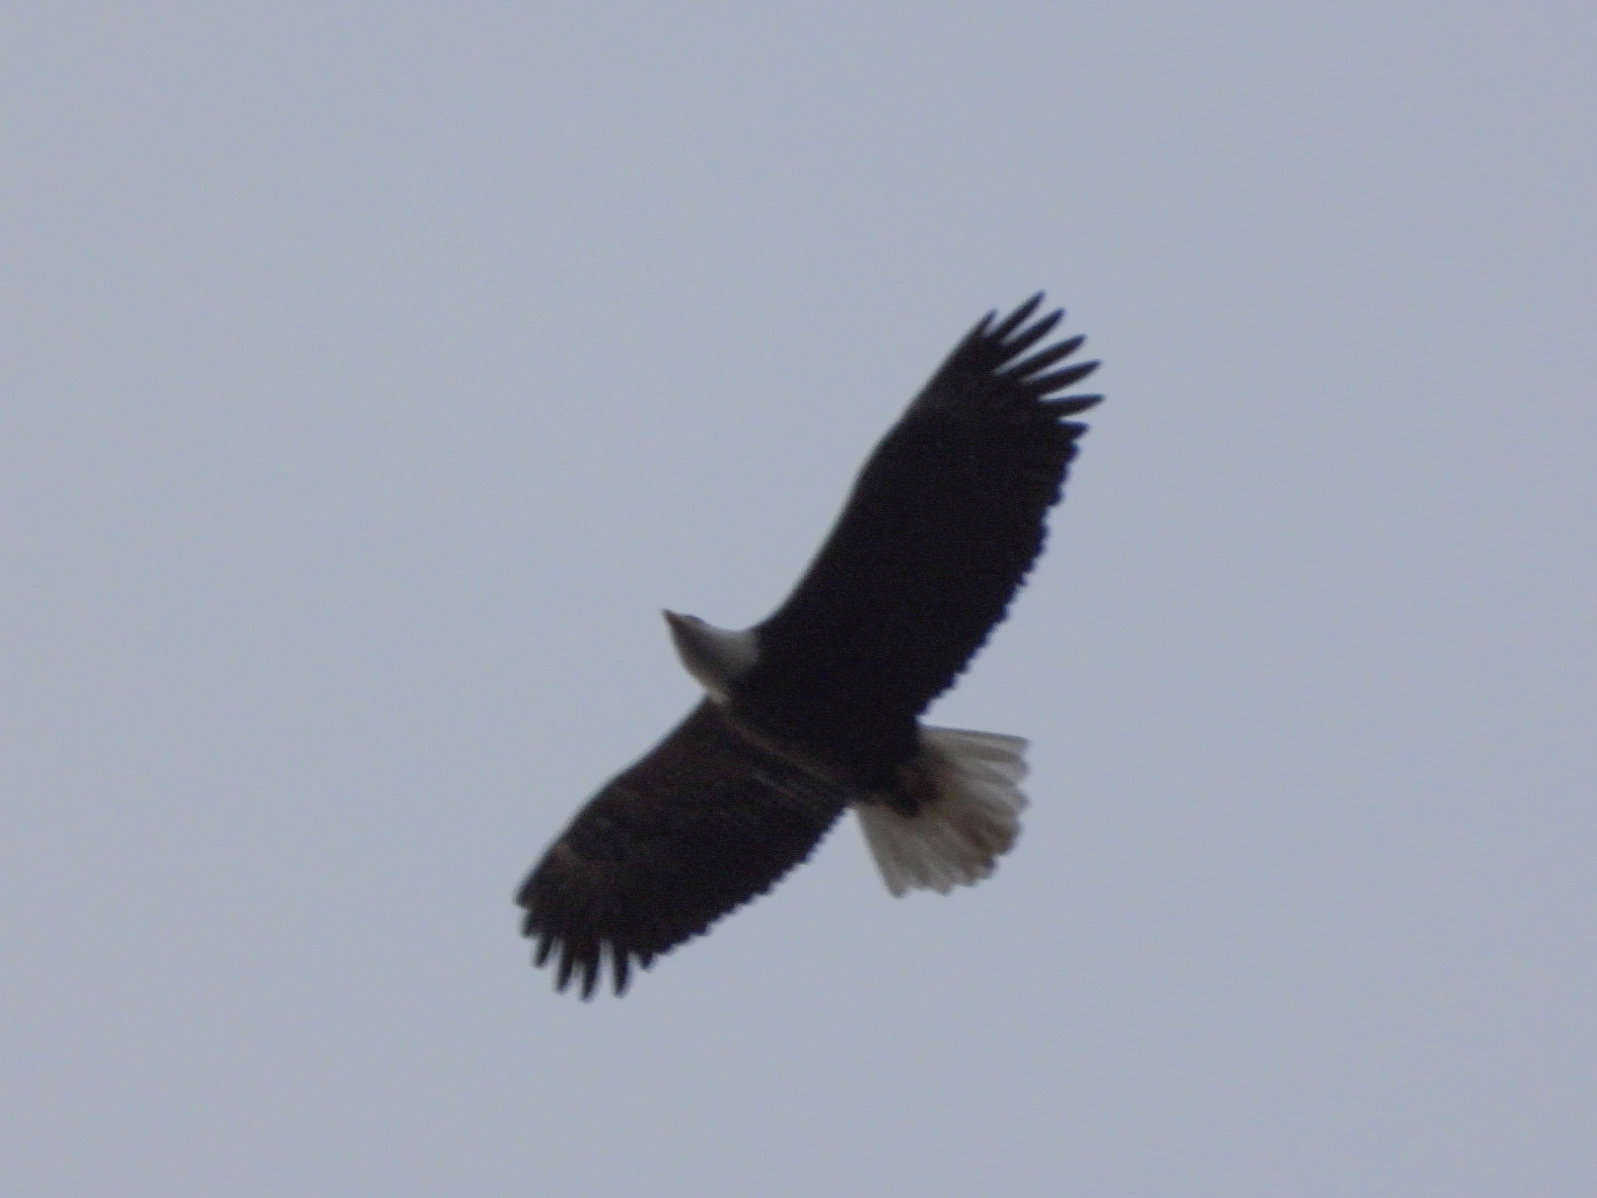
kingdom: Animalia
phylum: Chordata
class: Aves
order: Accipitriformes
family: Accipitridae
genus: Haliaeetus
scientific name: Haliaeetus leucocephalus
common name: Bald eagle
